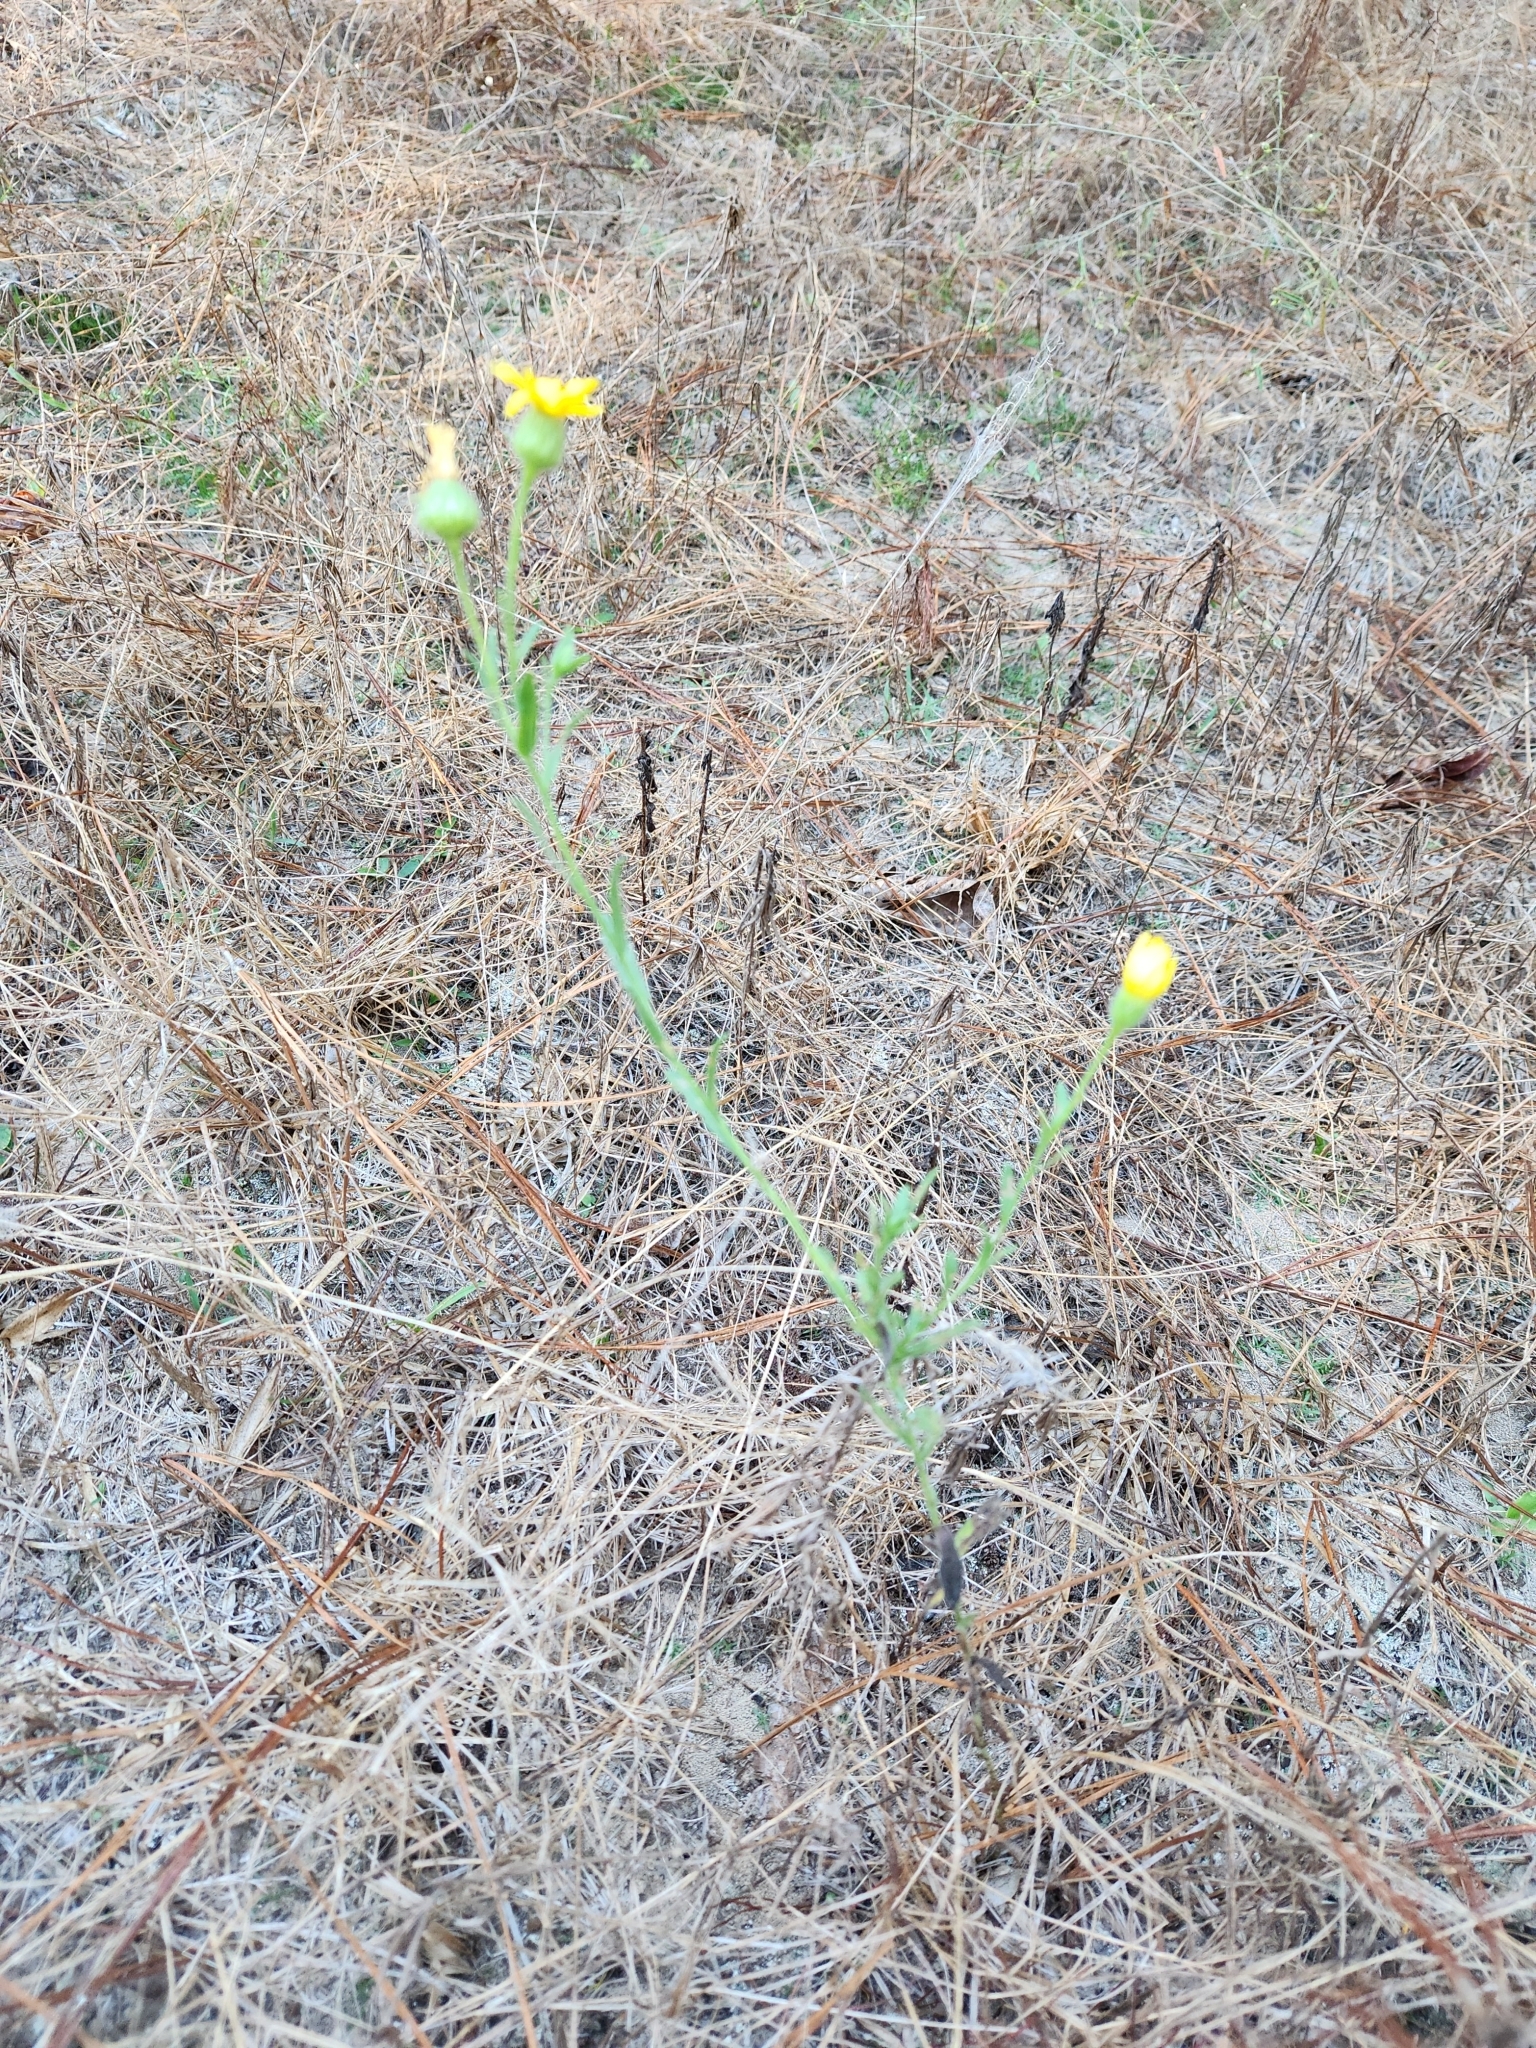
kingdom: Plantae
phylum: Tracheophyta
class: Magnoliopsida
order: Asterales
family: Asteraceae
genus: Bradburia
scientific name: Bradburia pilosa
